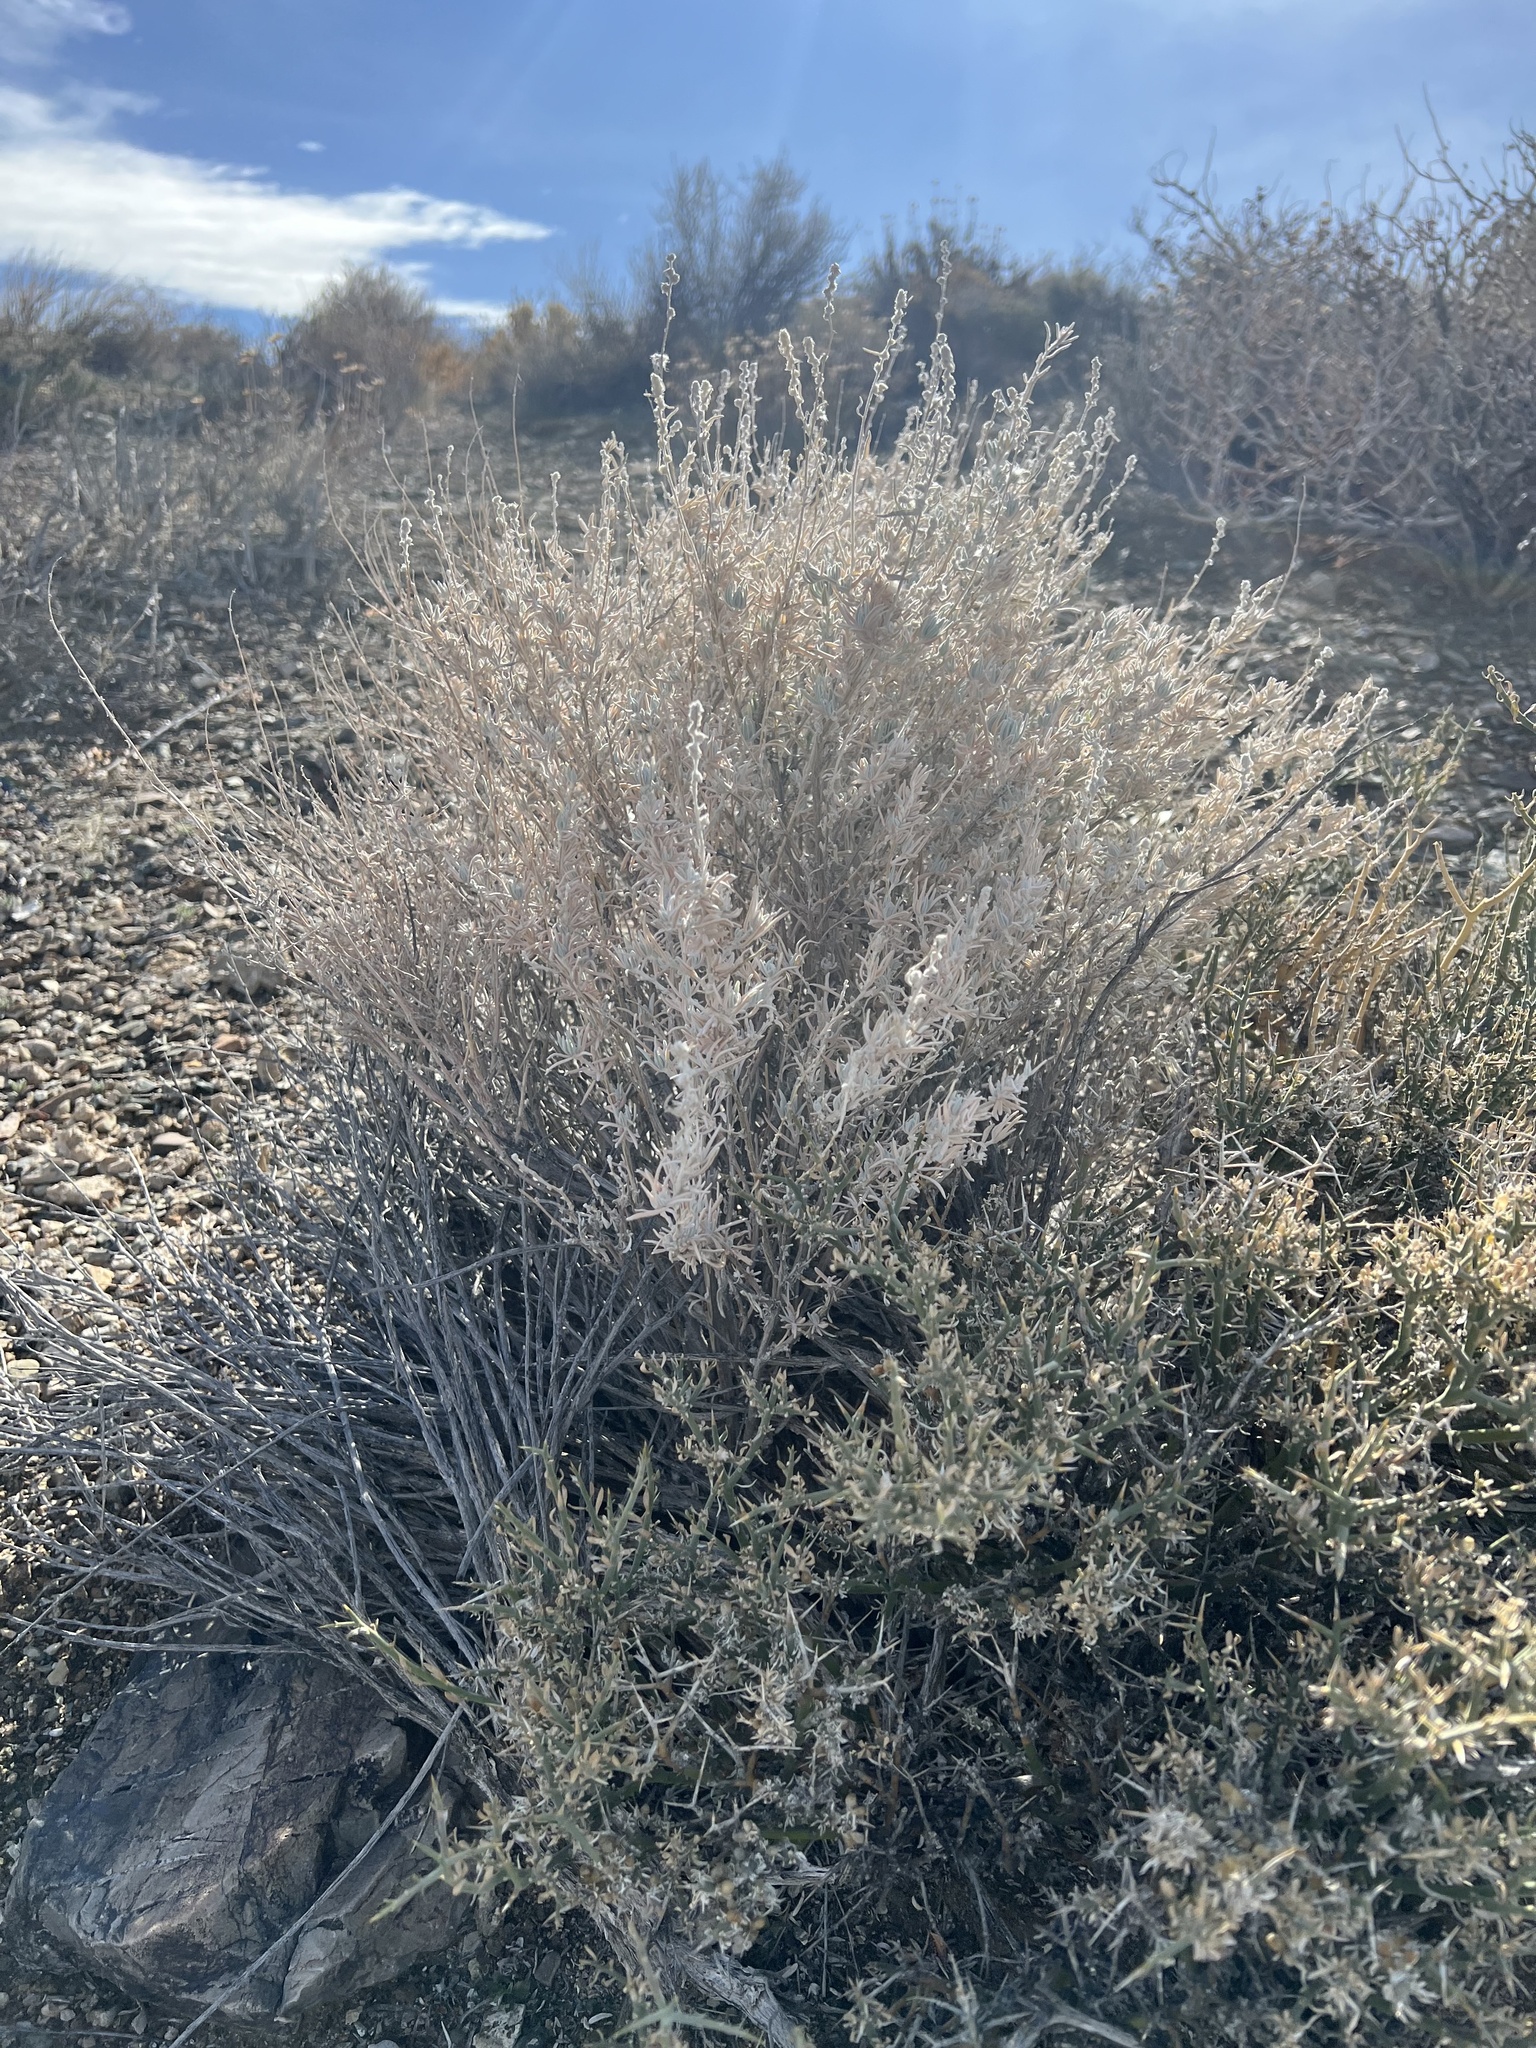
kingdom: Plantae
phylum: Tracheophyta
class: Magnoliopsida
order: Caryophyllales
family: Amaranthaceae
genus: Krascheninnikovia
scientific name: Krascheninnikovia lanata
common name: Winterfat
